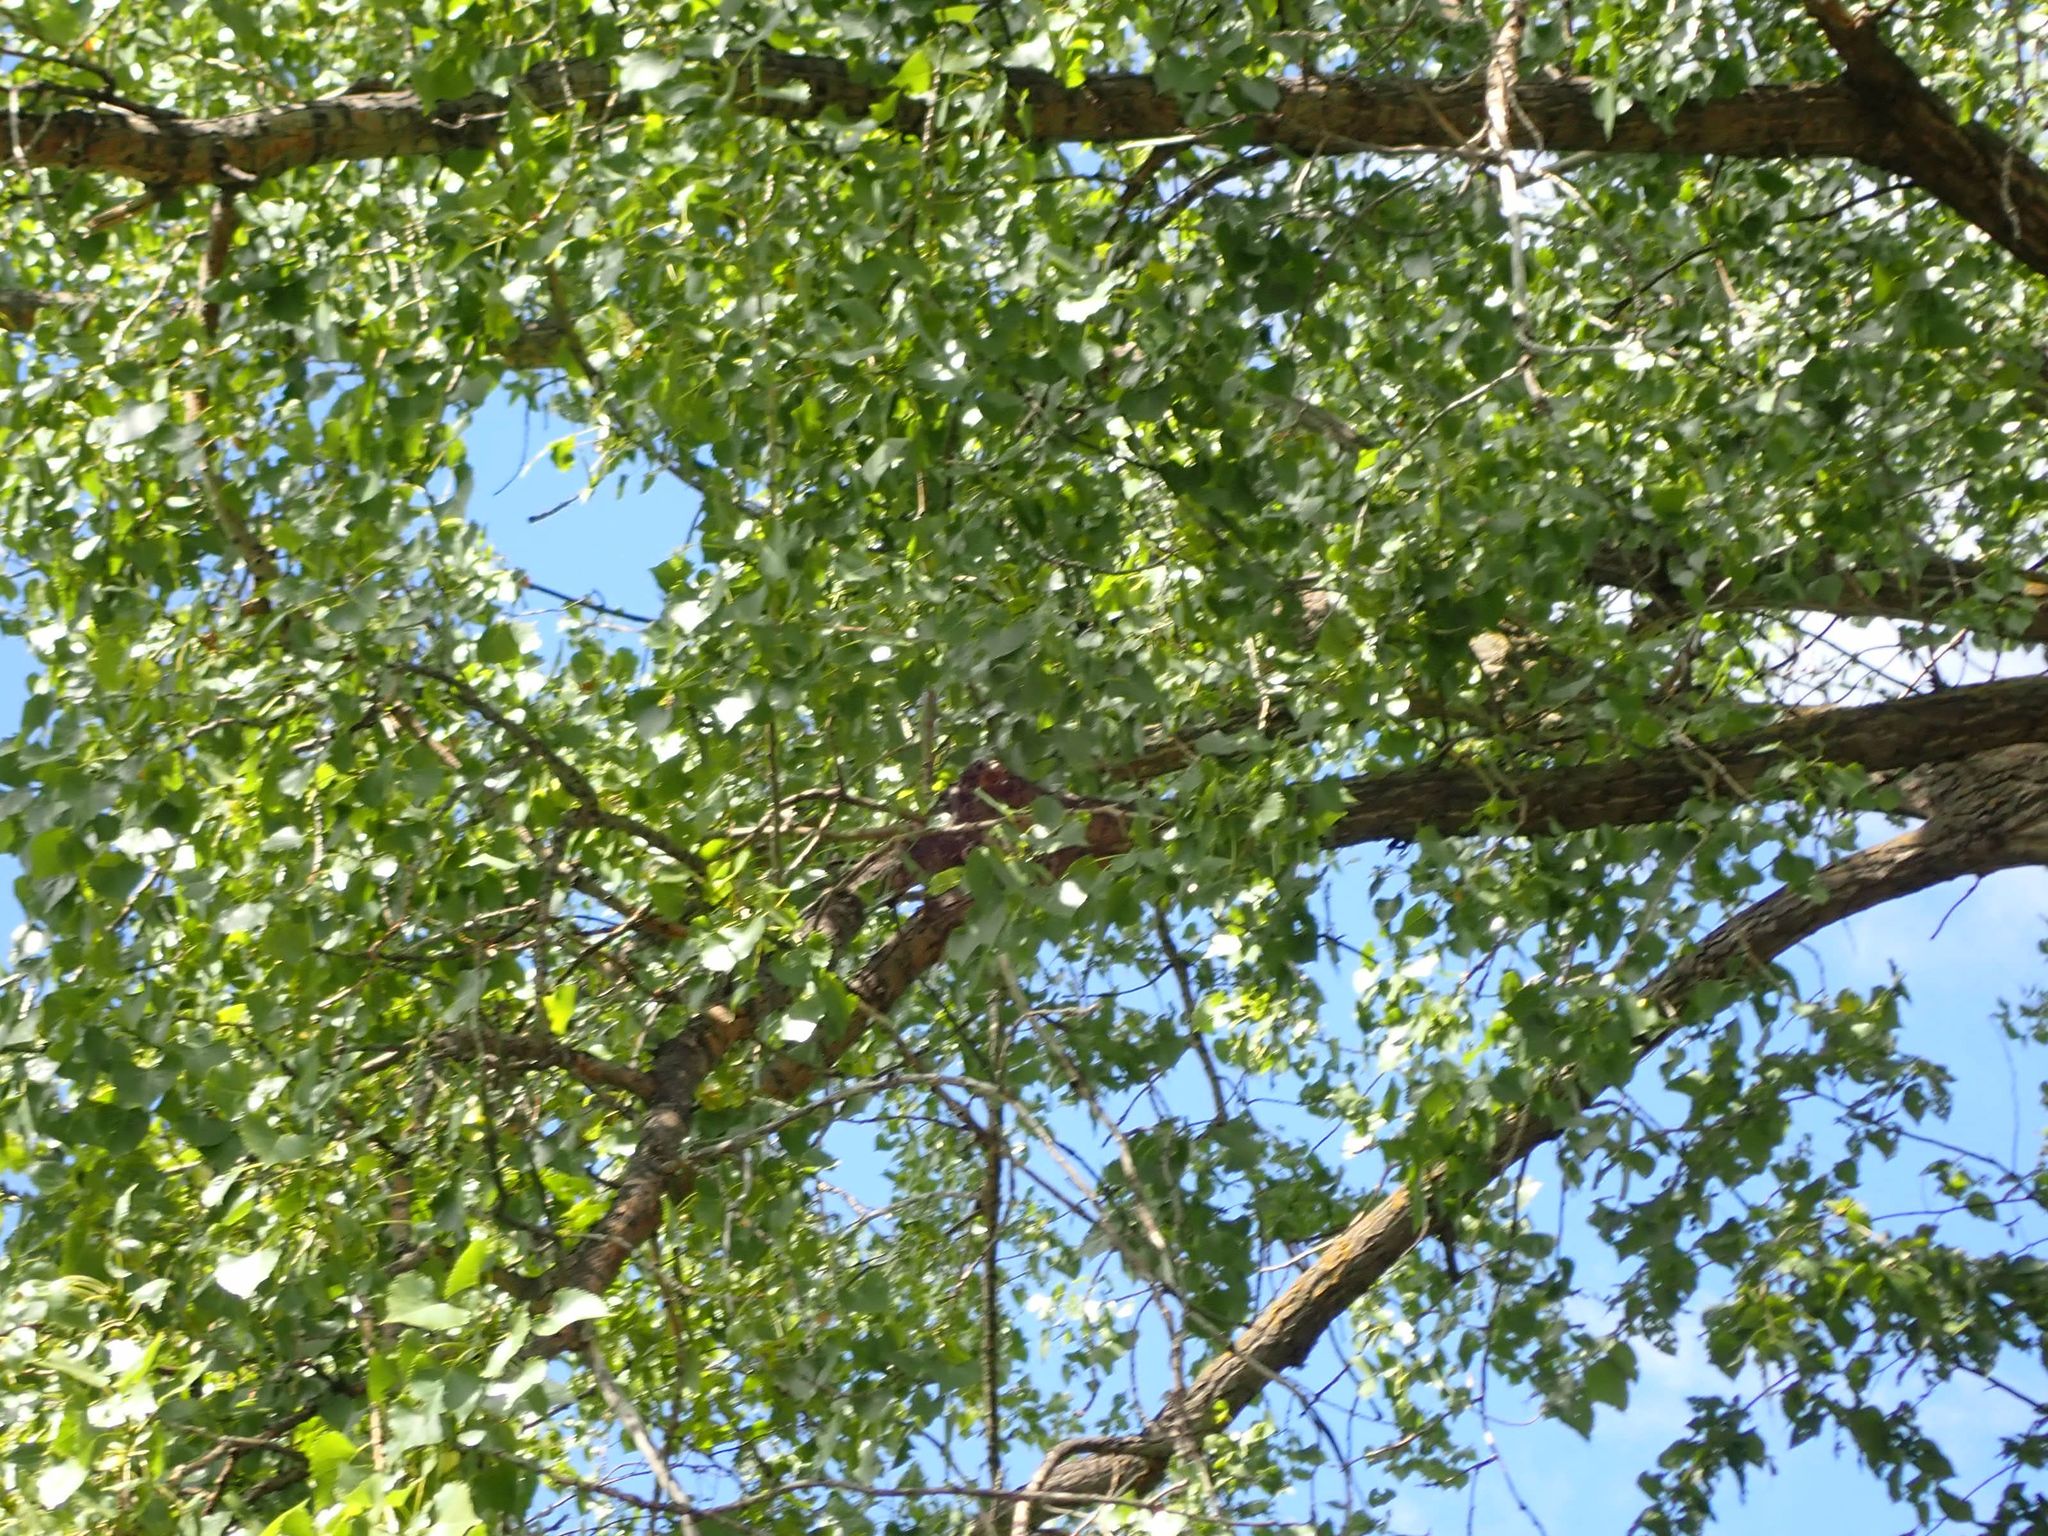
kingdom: Plantae
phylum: Tracheophyta
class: Magnoliopsida
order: Malpighiales
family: Salicaceae
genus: Populus
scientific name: Populus deltoides
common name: Eastern cottonwood
